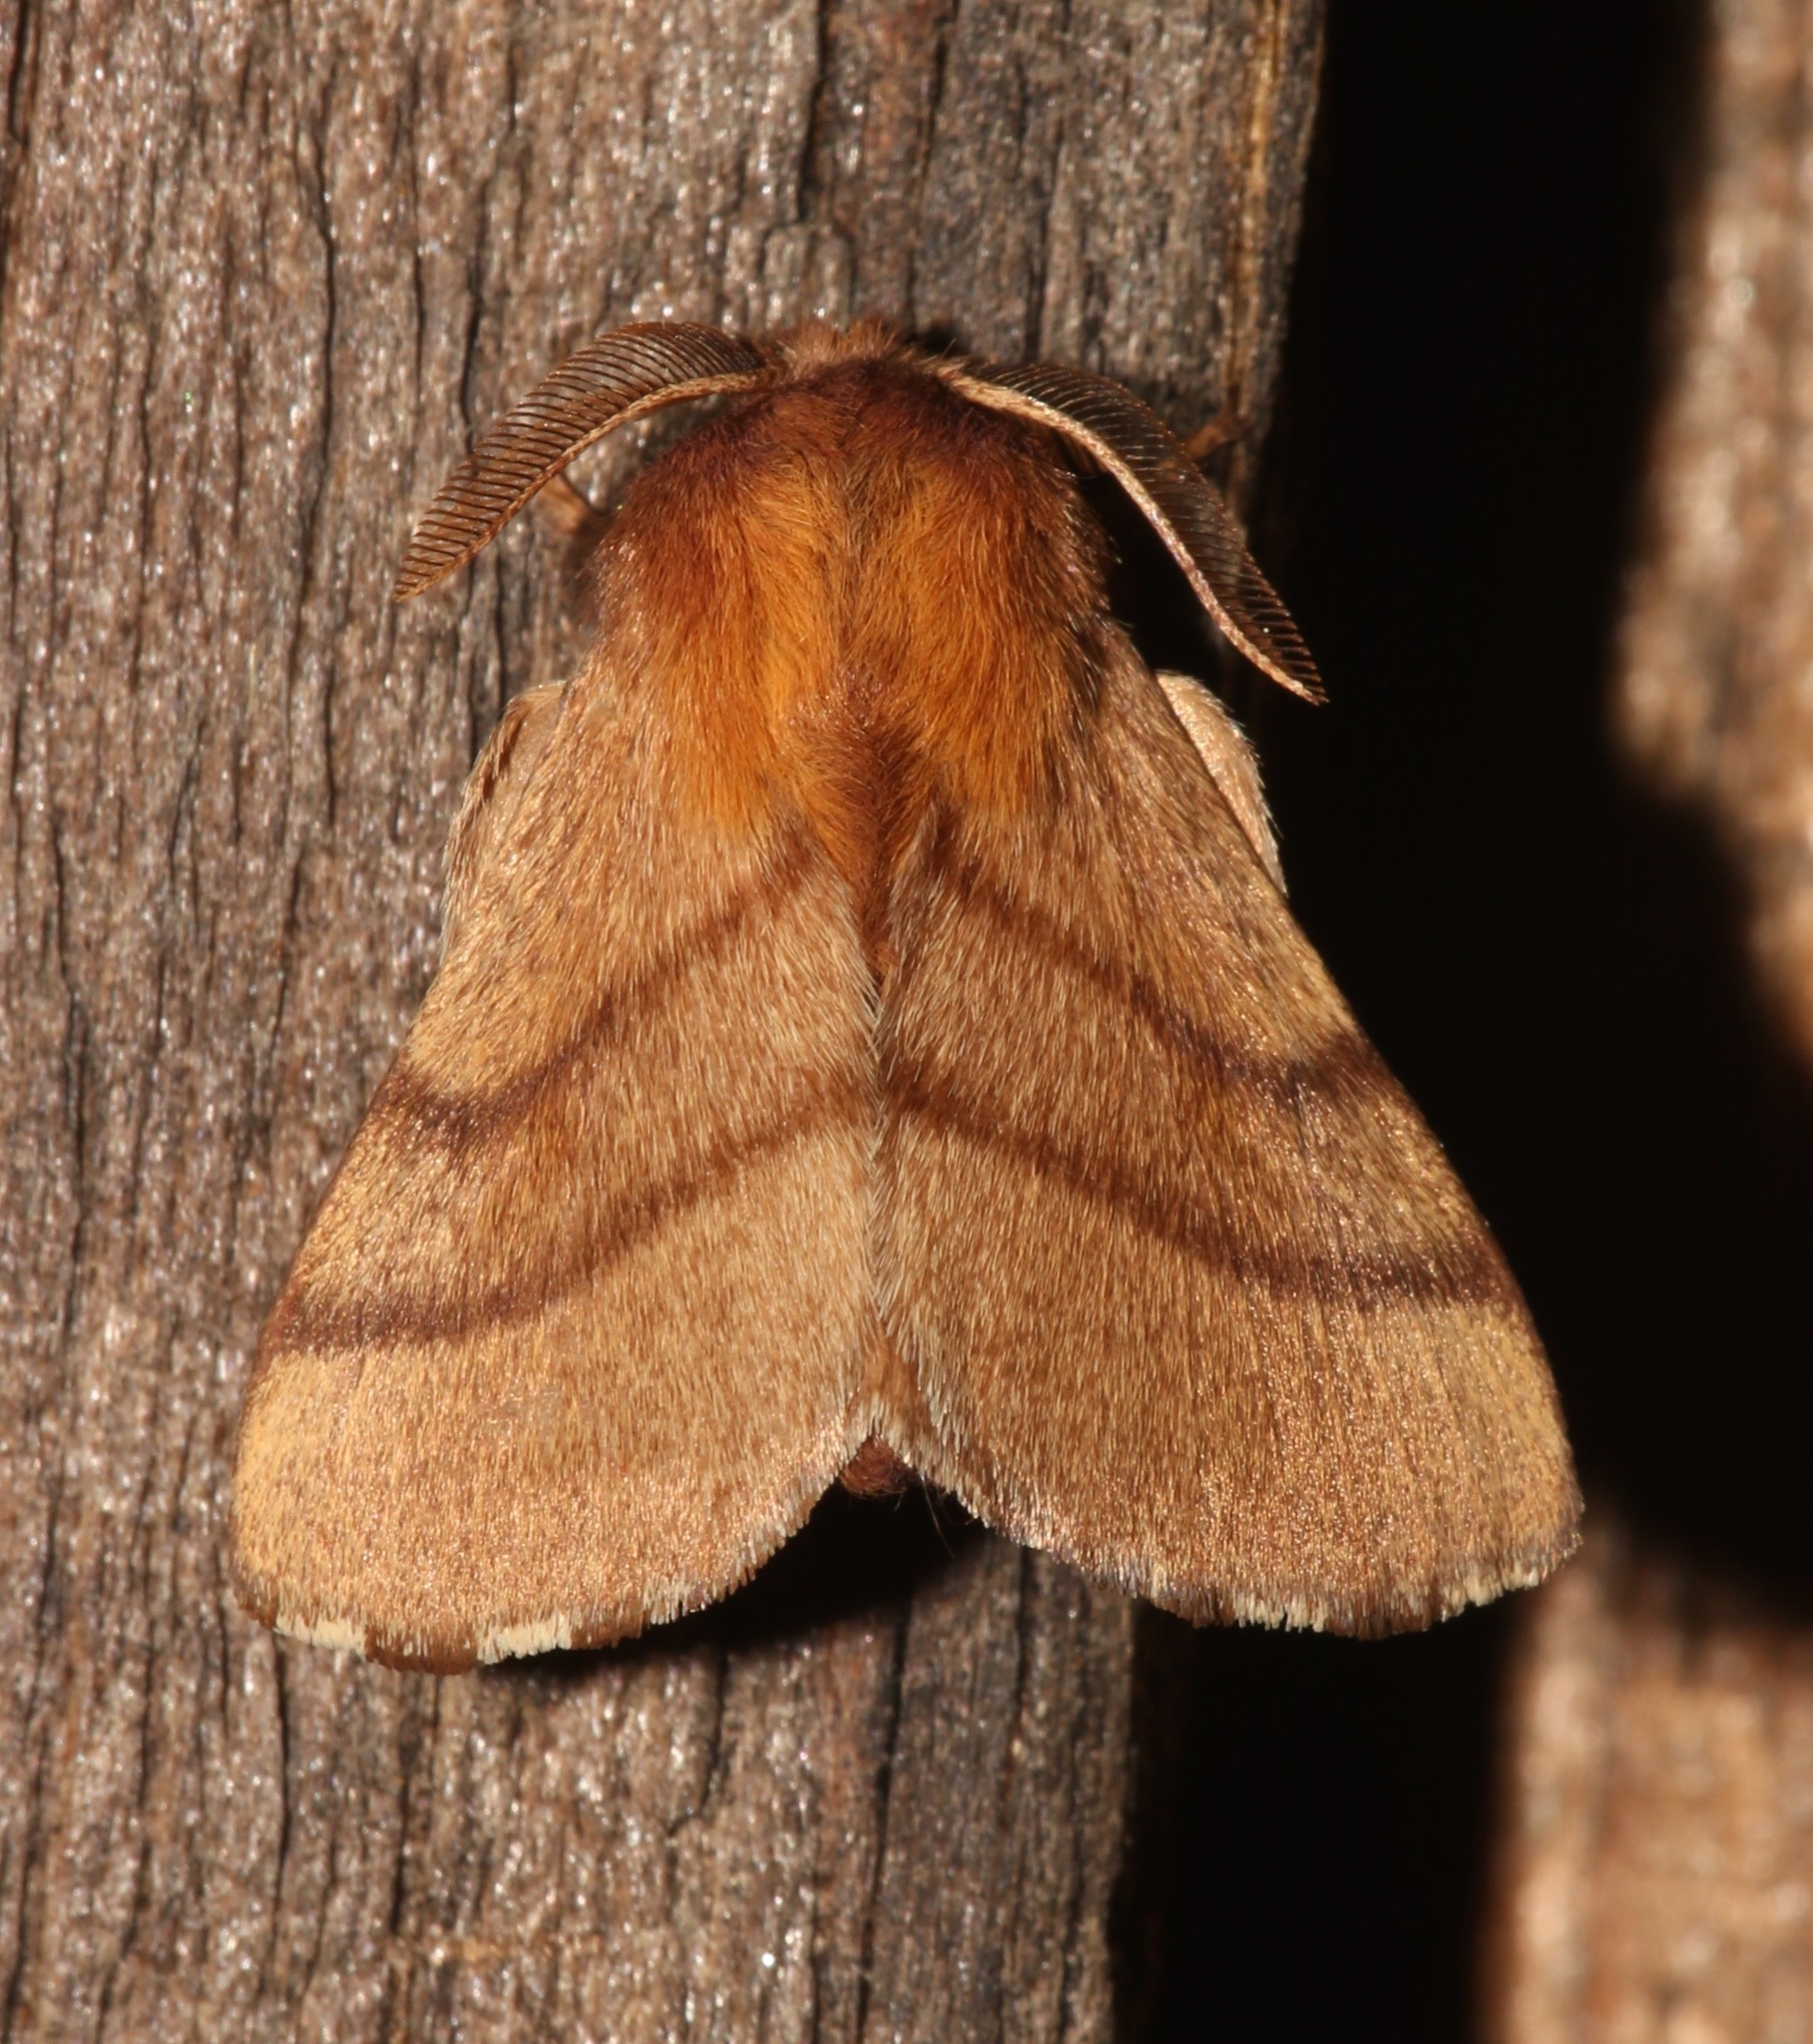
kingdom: Animalia
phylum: Arthropoda
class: Insecta
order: Lepidoptera
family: Lasiocampidae
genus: Malacosoma
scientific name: Malacosoma disstria
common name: Forest tent caterpillar
